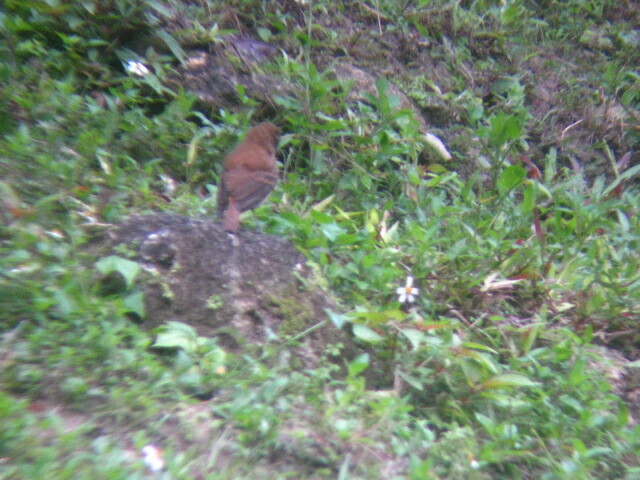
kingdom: Animalia
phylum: Chordata
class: Aves
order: Passeriformes
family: Tyrannidae
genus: Attila
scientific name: Attila spadiceus
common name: Bright-rumped attila
